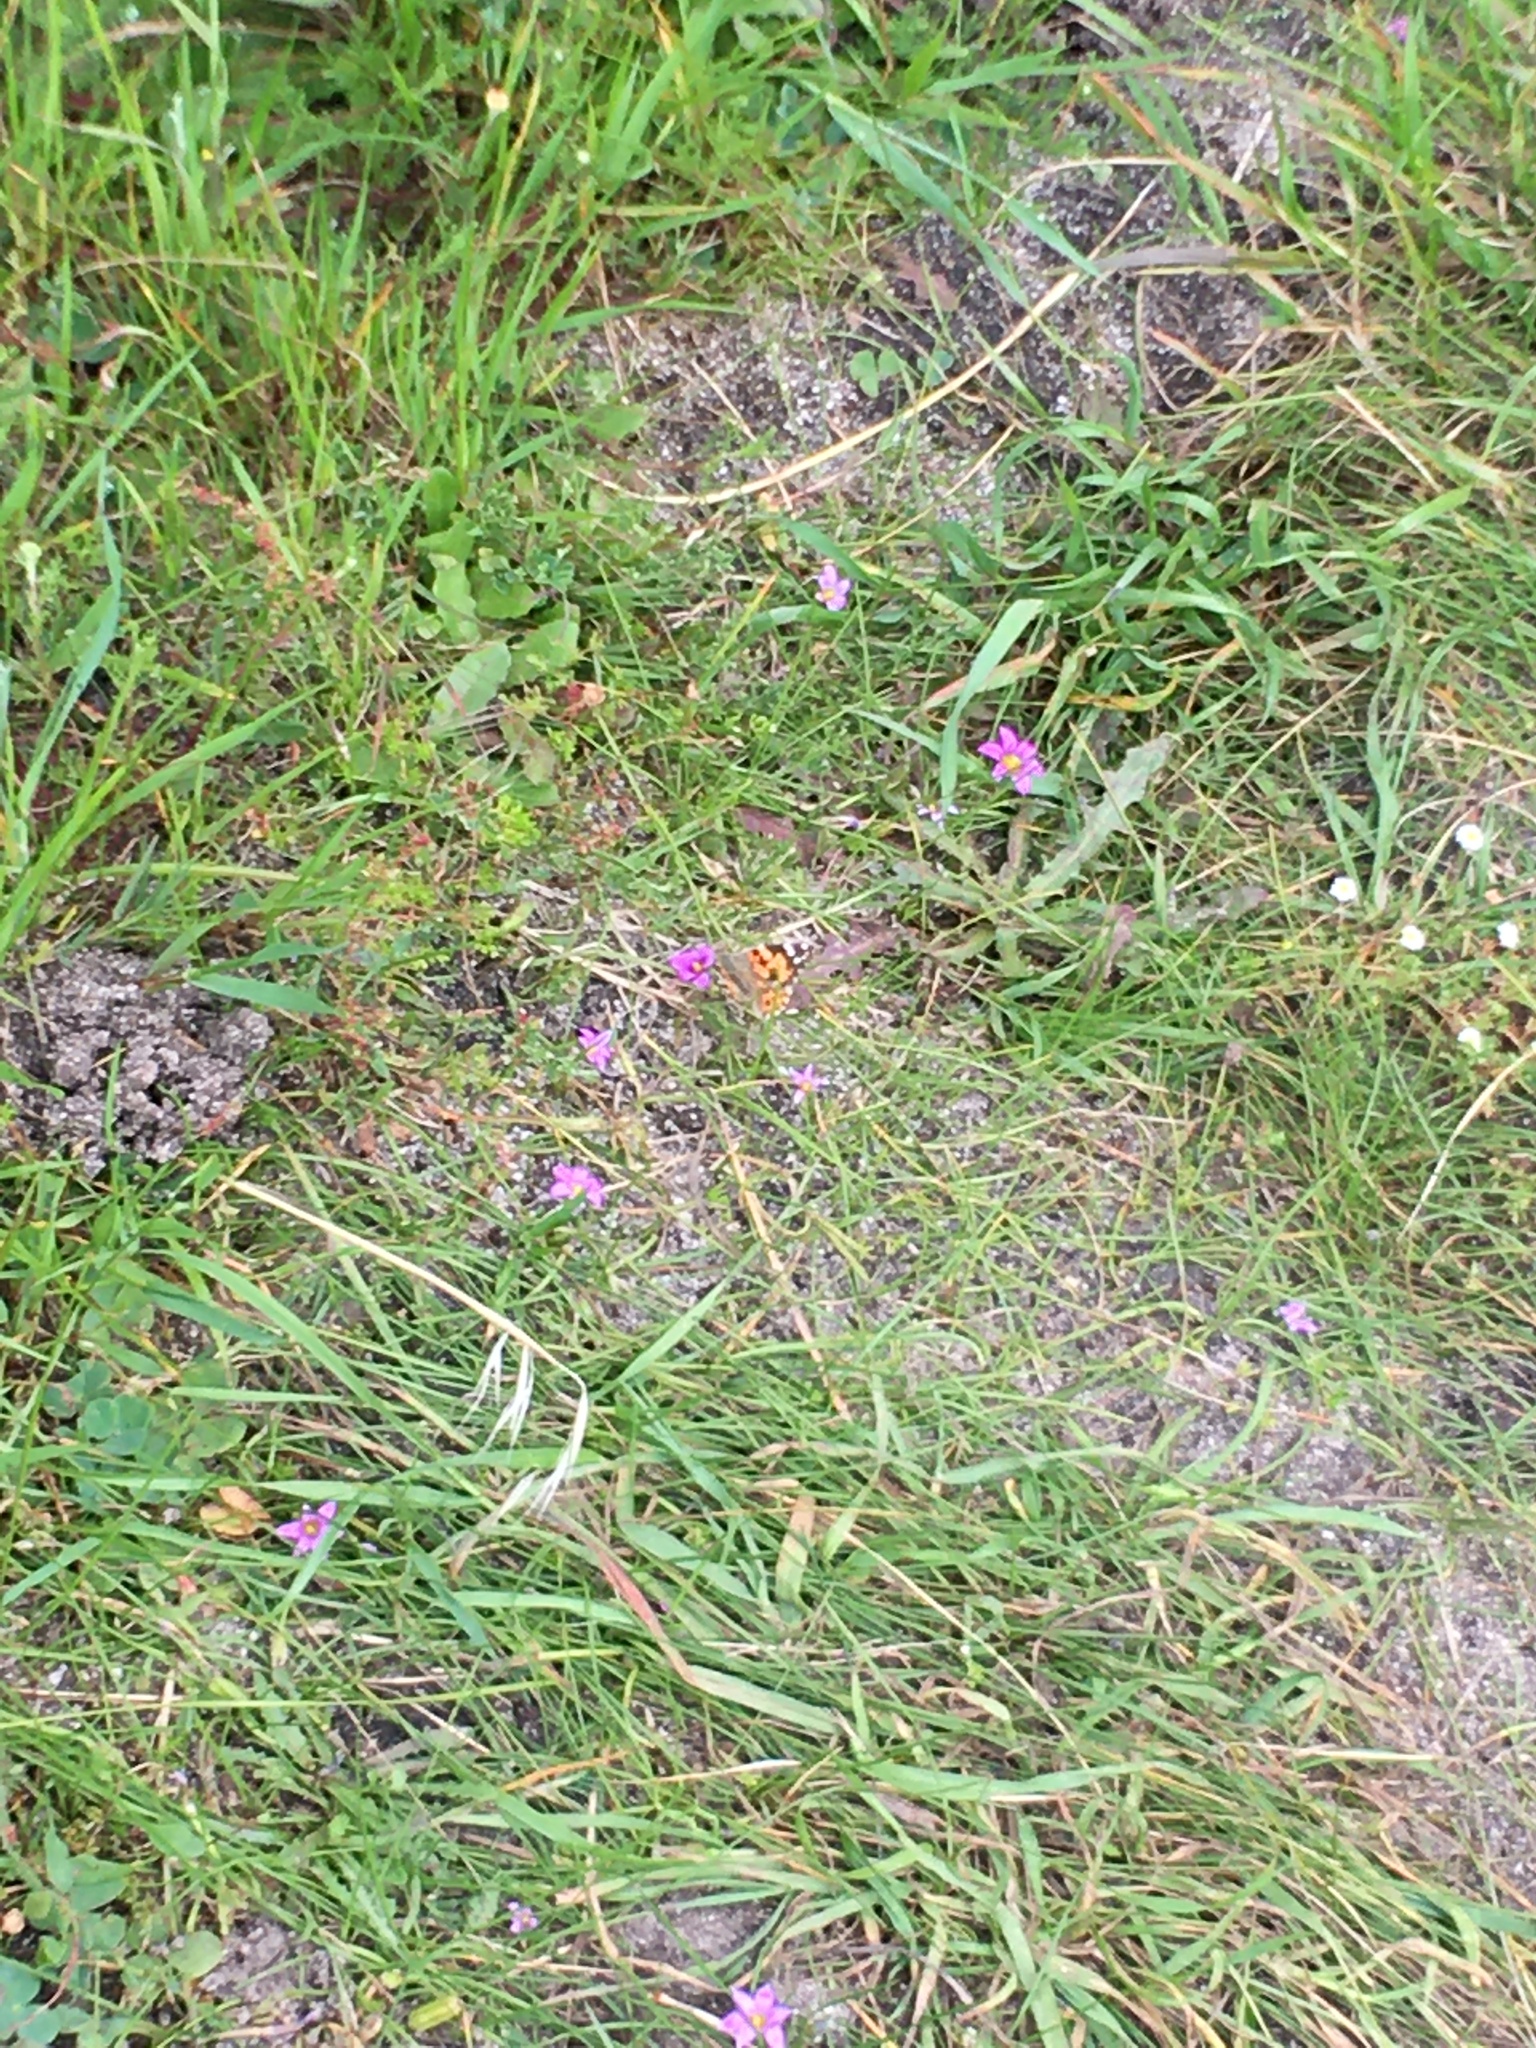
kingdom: Animalia
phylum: Arthropoda
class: Insecta
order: Lepidoptera
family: Nymphalidae
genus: Vanessa
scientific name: Vanessa cardui
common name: Painted lady
